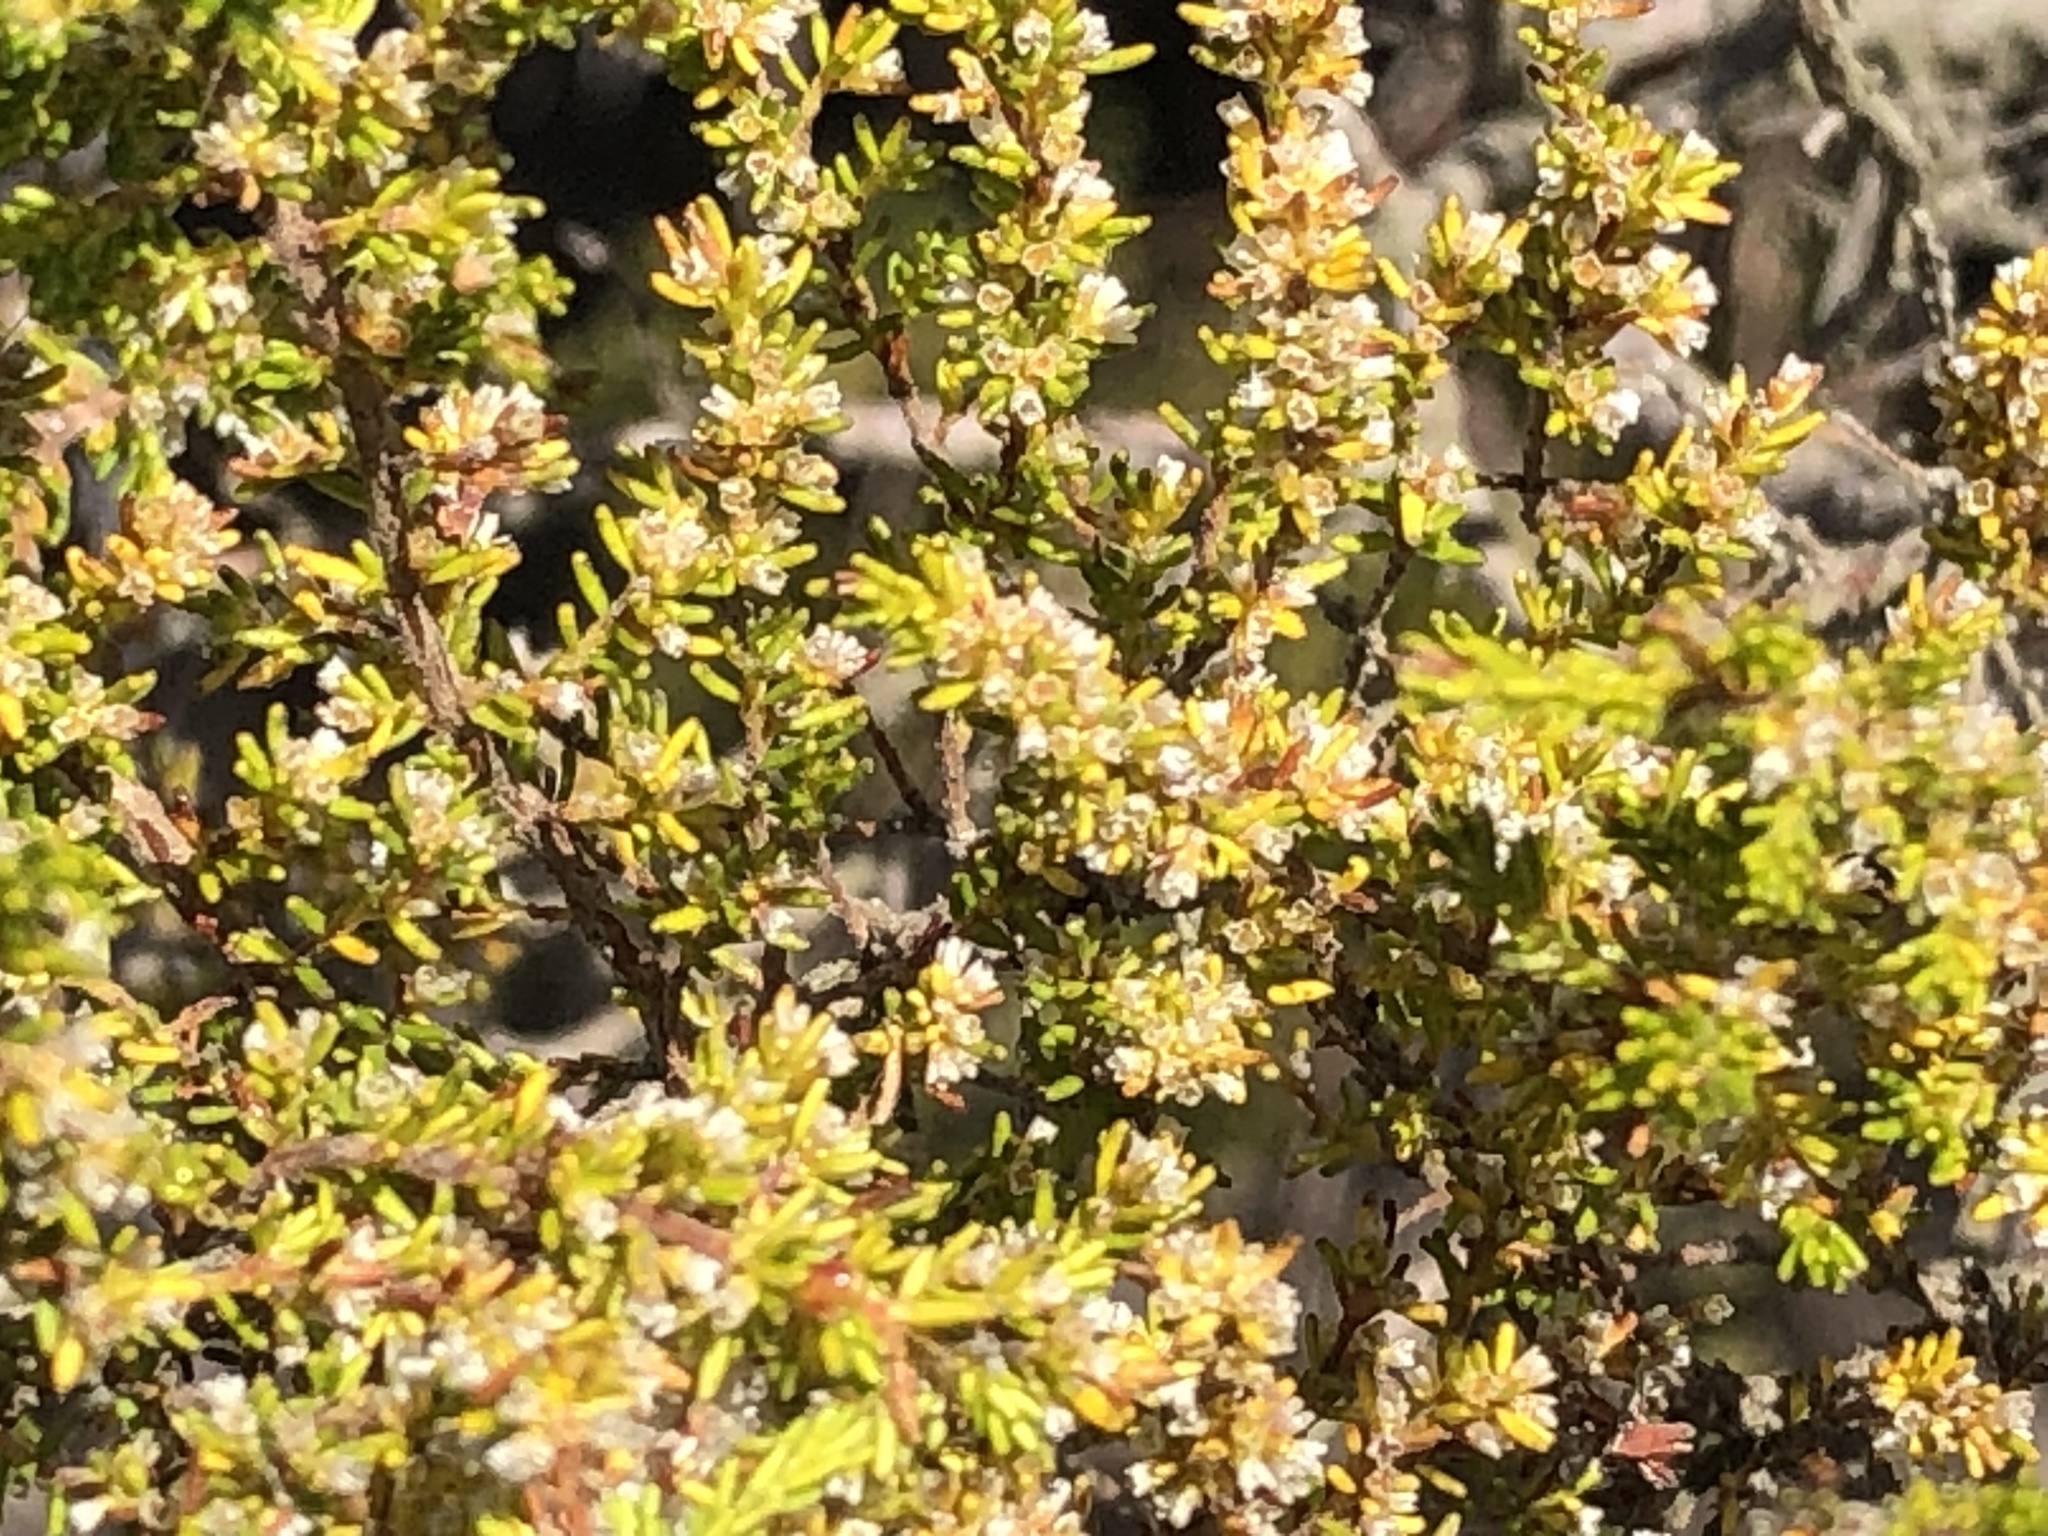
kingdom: Plantae
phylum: Tracheophyta
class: Magnoliopsida
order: Ericales
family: Ericaceae
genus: Erica
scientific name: Erica muscosa
